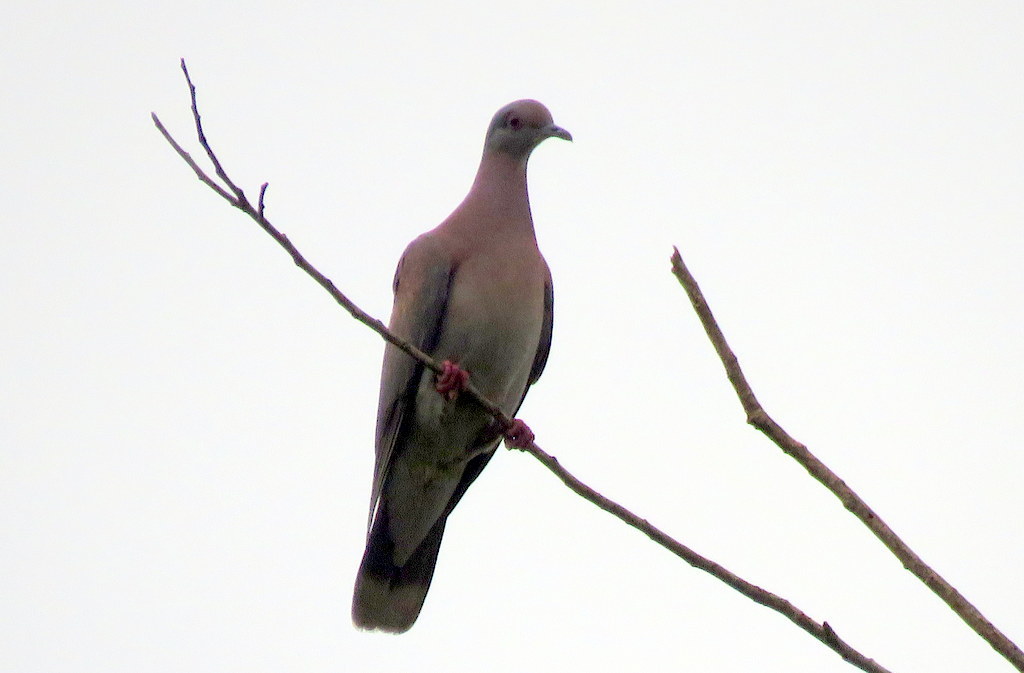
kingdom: Animalia
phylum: Chordata
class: Aves
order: Columbiformes
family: Columbidae
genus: Patagioenas
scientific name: Patagioenas cayennensis
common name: Pale-vented pigeon
